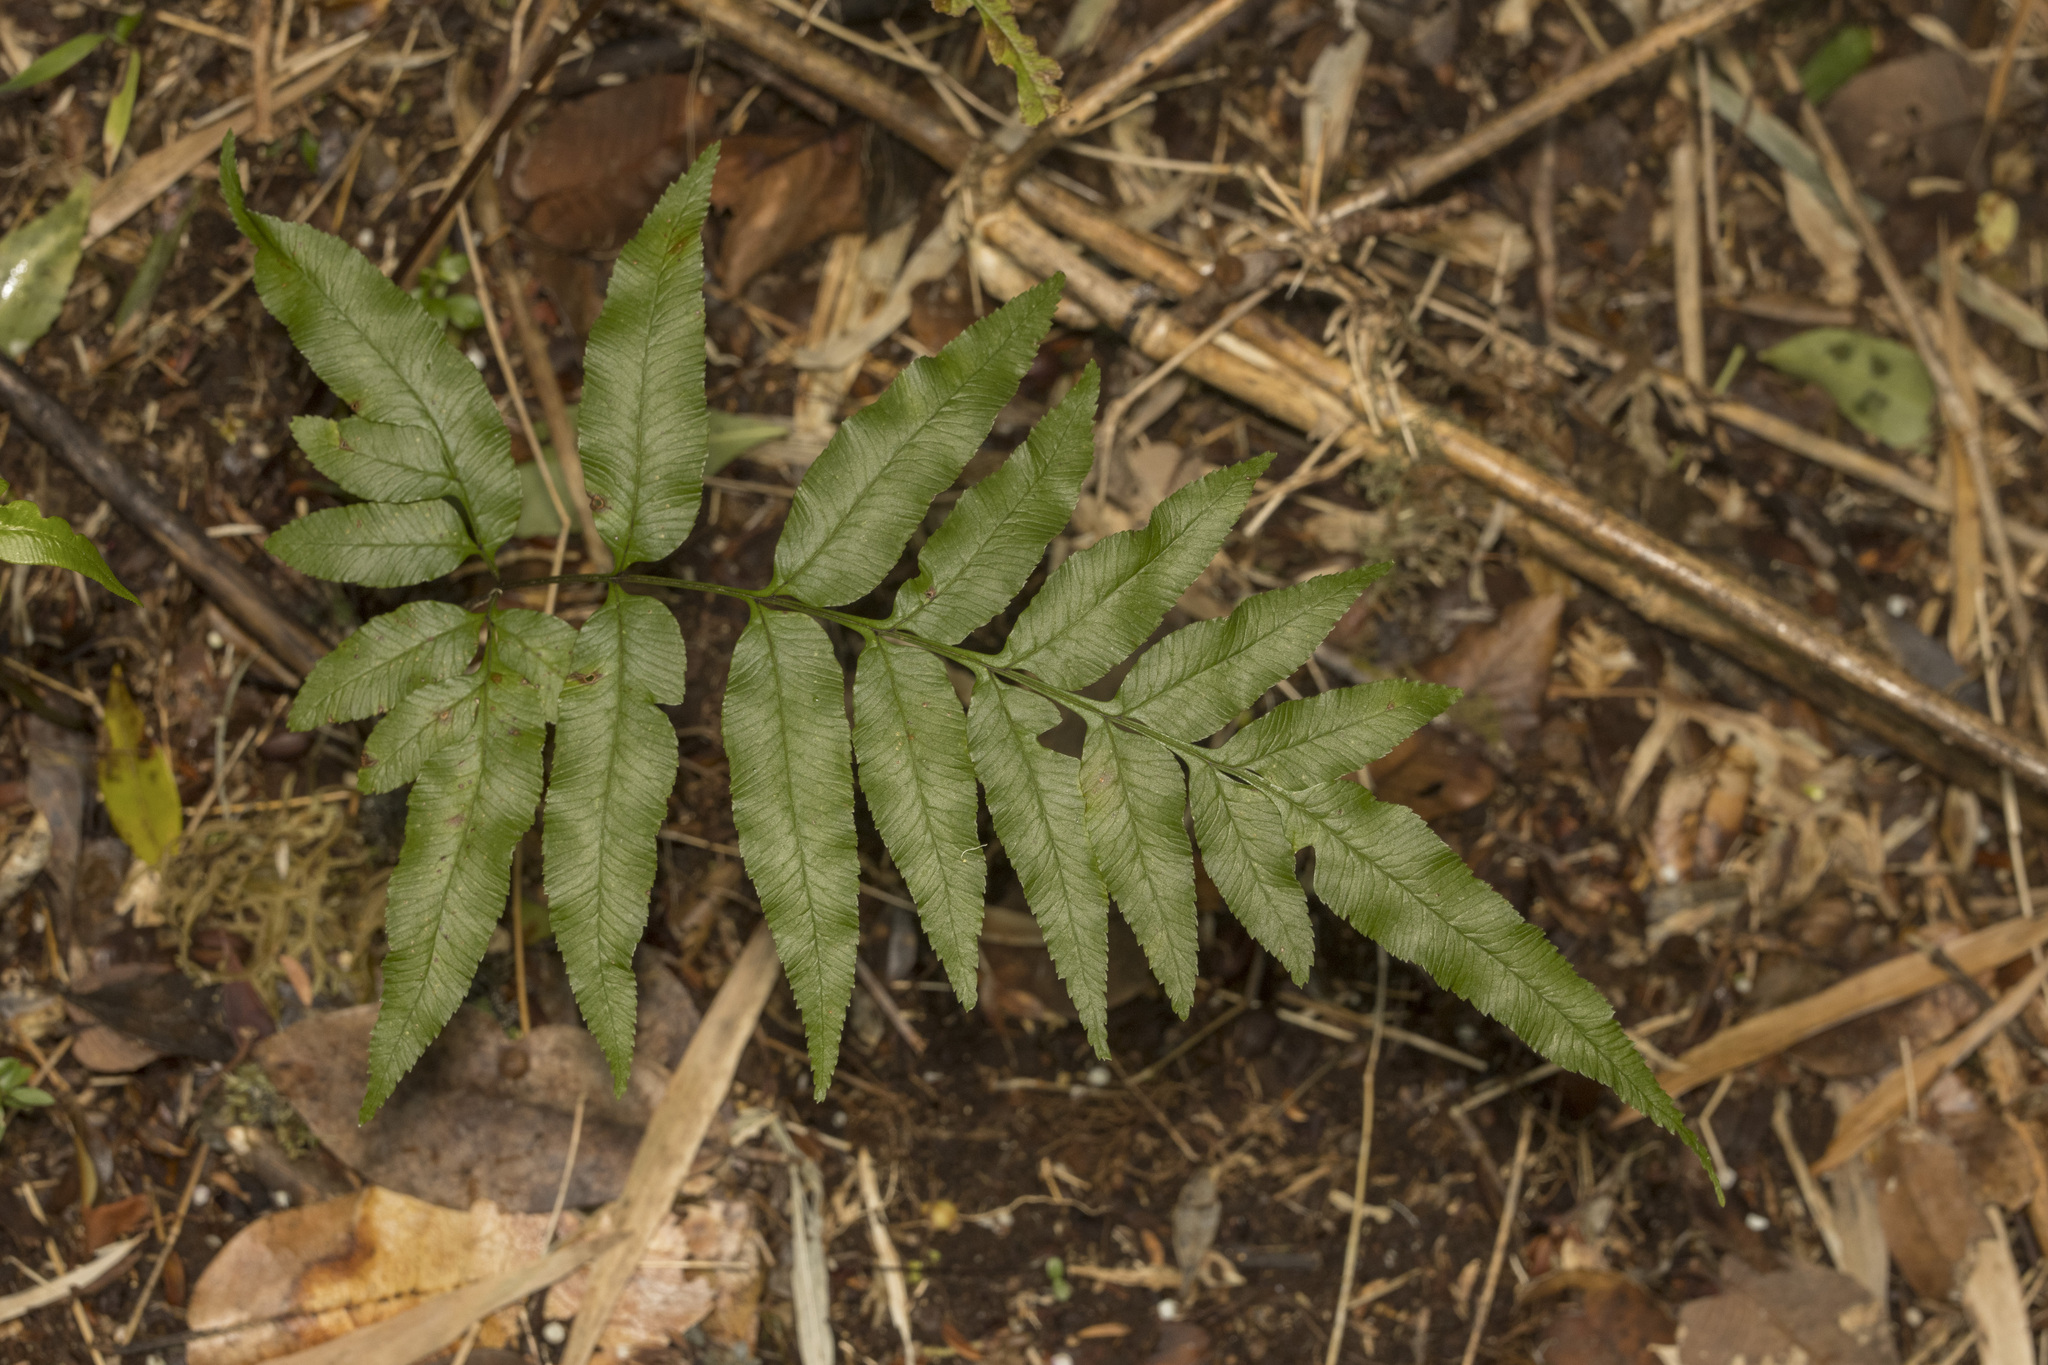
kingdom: Plantae
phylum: Tracheophyta
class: Polypodiopsida
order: Polypodiales
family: Pteridaceae
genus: Pteris
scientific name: Pteris semiadnata
